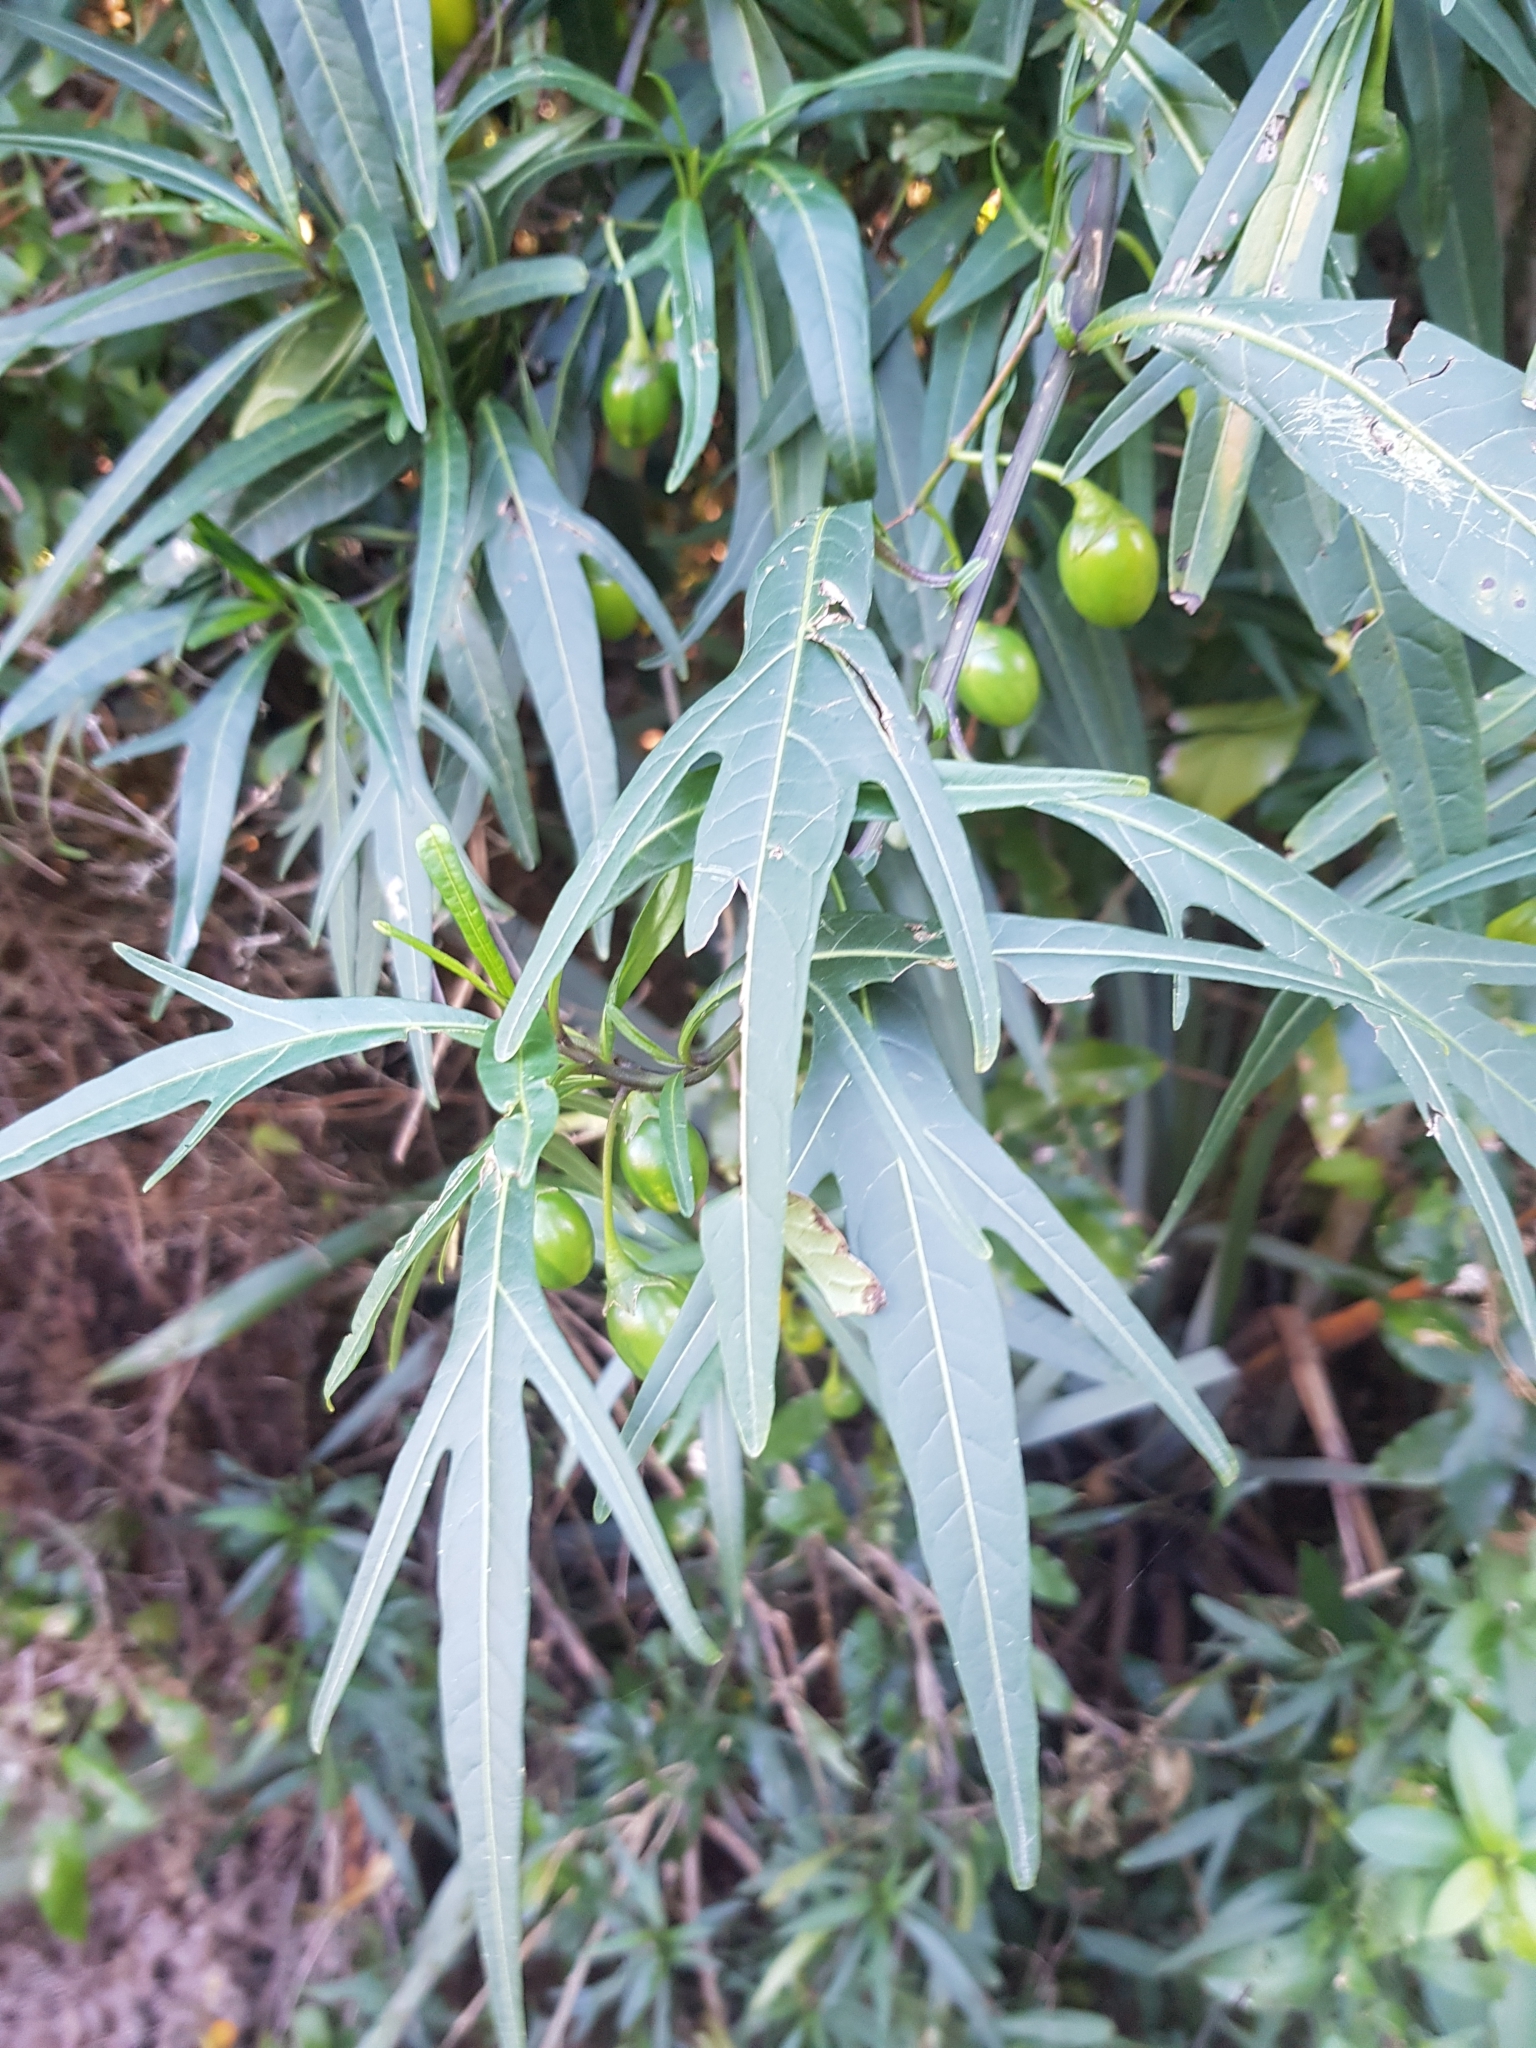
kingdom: Plantae
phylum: Tracheophyta
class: Magnoliopsida
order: Solanales
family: Solanaceae
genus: Solanum
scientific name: Solanum laciniatum
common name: Kangaroo-apple
